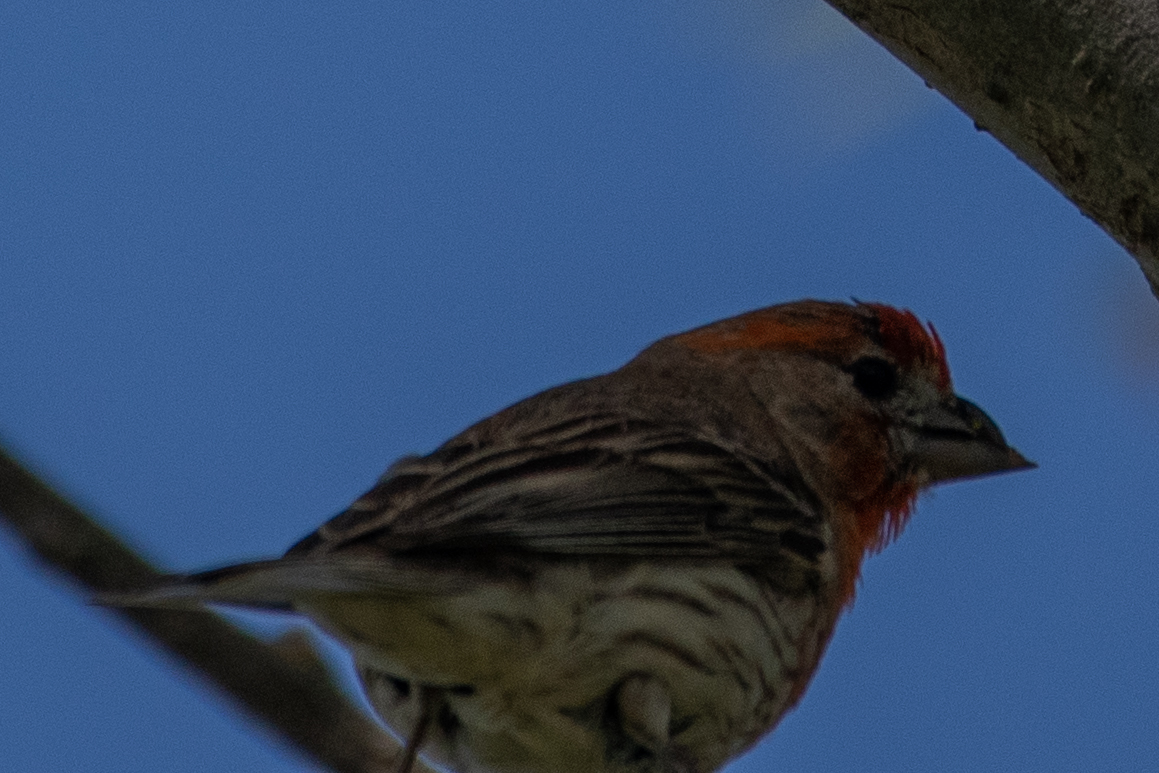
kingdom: Animalia
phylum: Chordata
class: Aves
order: Passeriformes
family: Fringillidae
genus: Haemorhous
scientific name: Haemorhous mexicanus
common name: House finch
